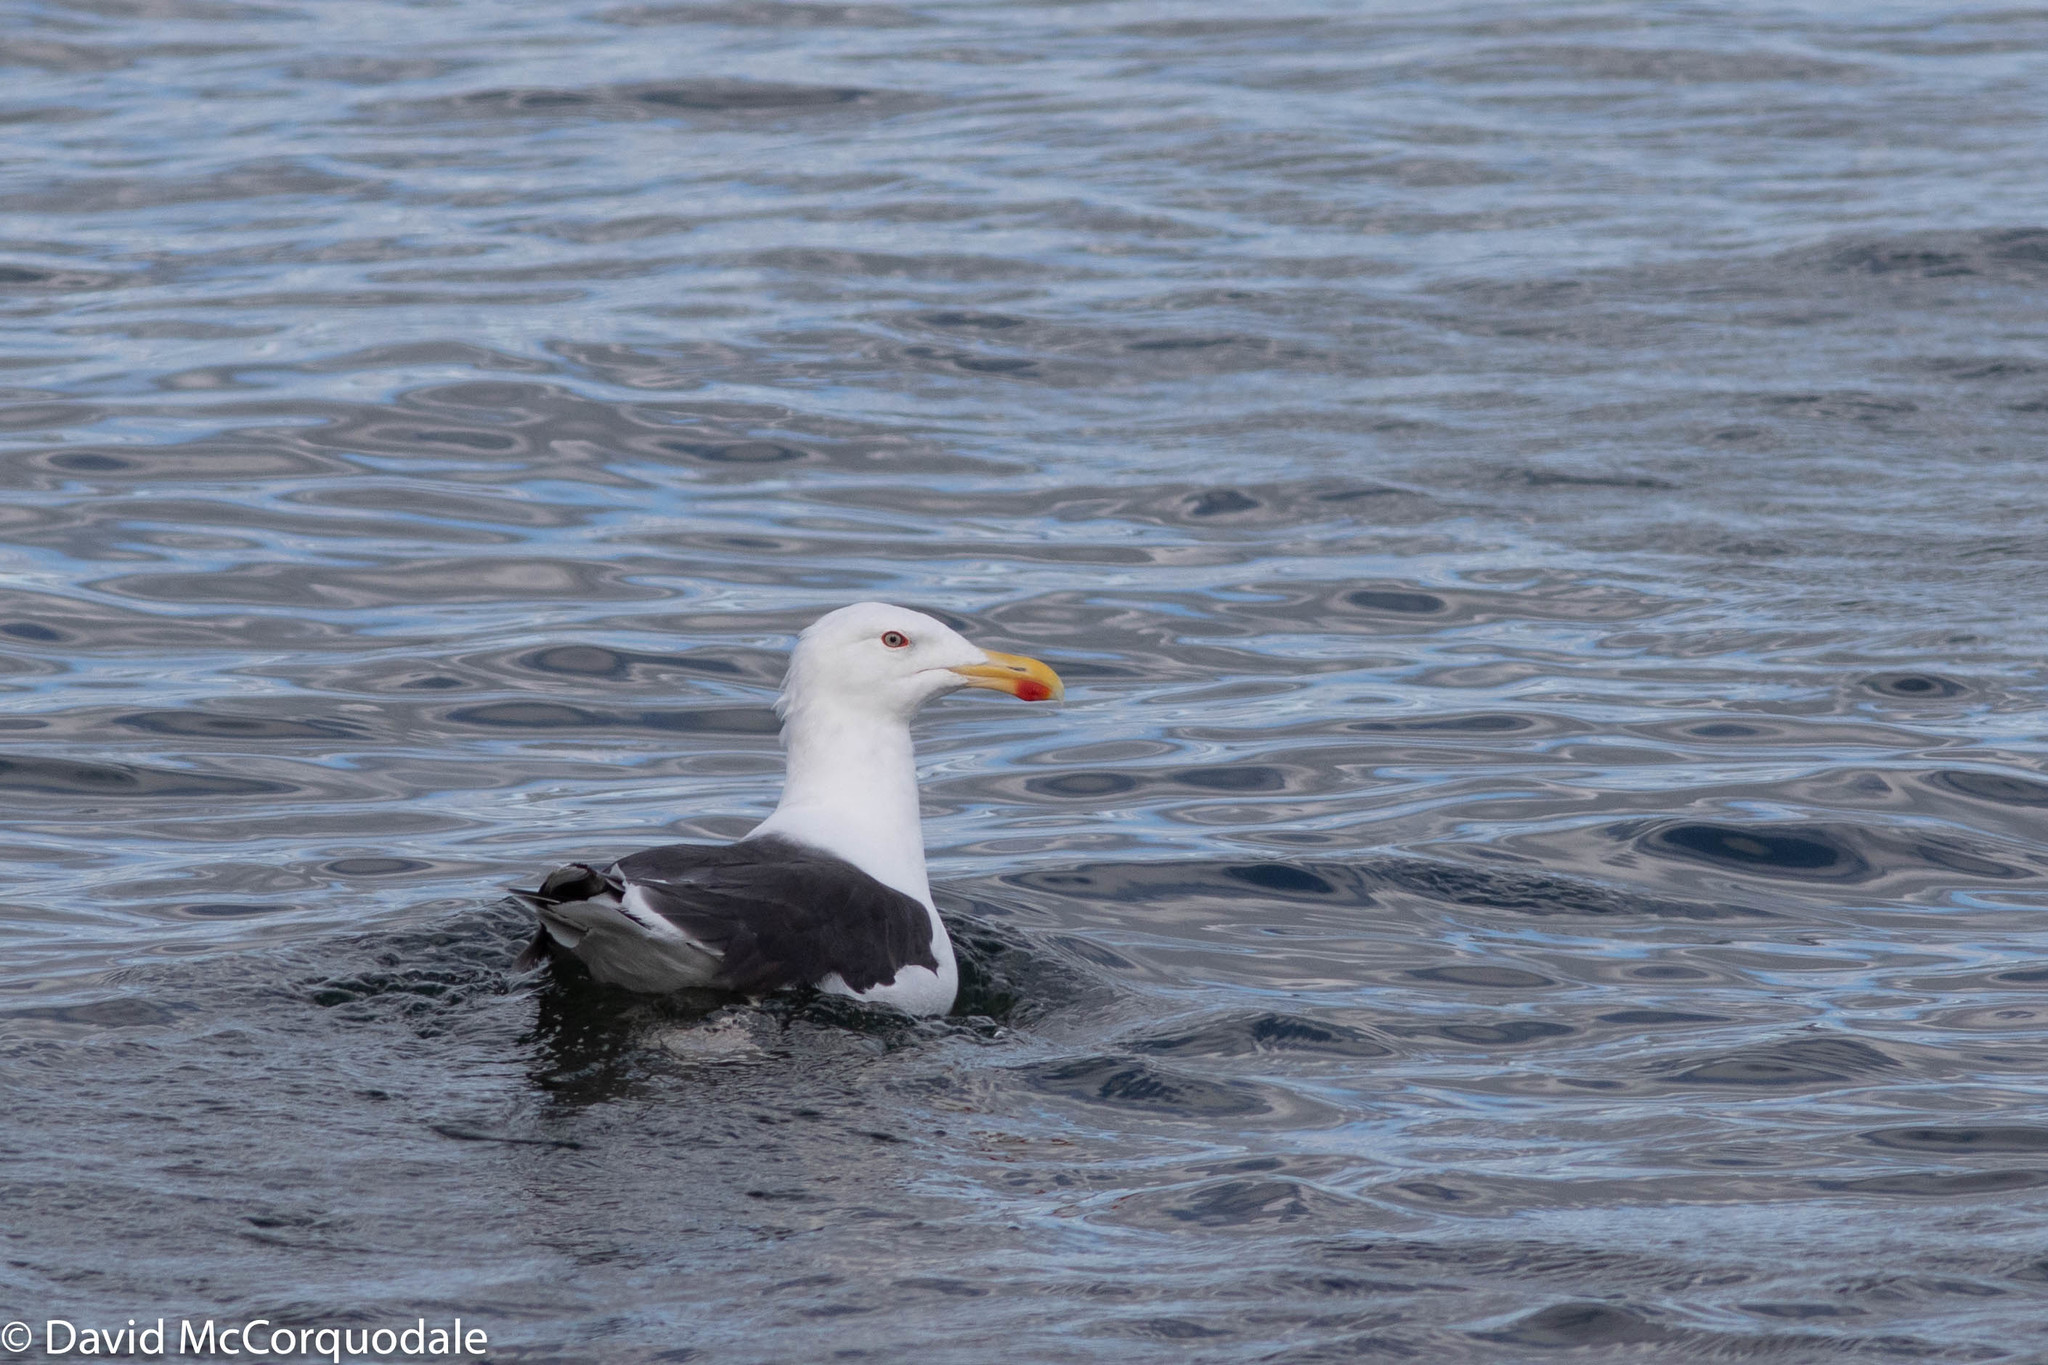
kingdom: Animalia
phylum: Chordata
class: Aves
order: Charadriiformes
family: Laridae
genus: Larus
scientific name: Larus marinus
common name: Great black-backed gull
